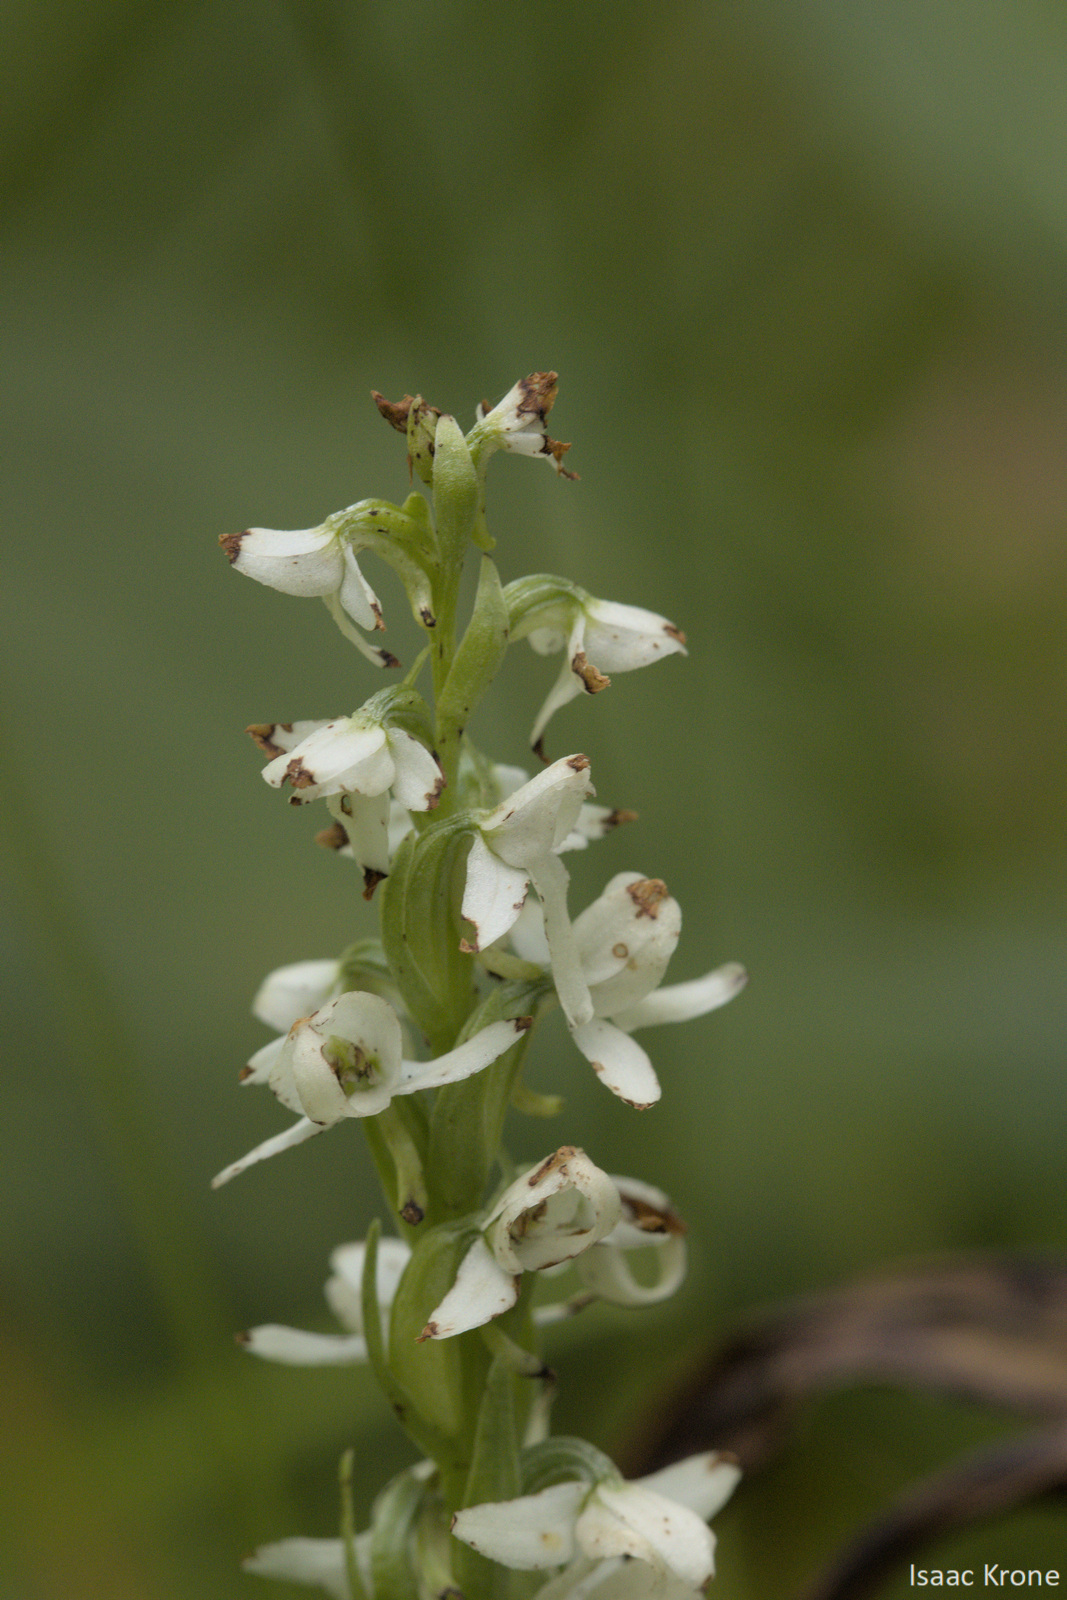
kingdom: Plantae
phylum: Tracheophyta
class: Liliopsida
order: Asparagales
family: Orchidaceae
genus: Platanthera
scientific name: Platanthera dilatata
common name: Bog candles
